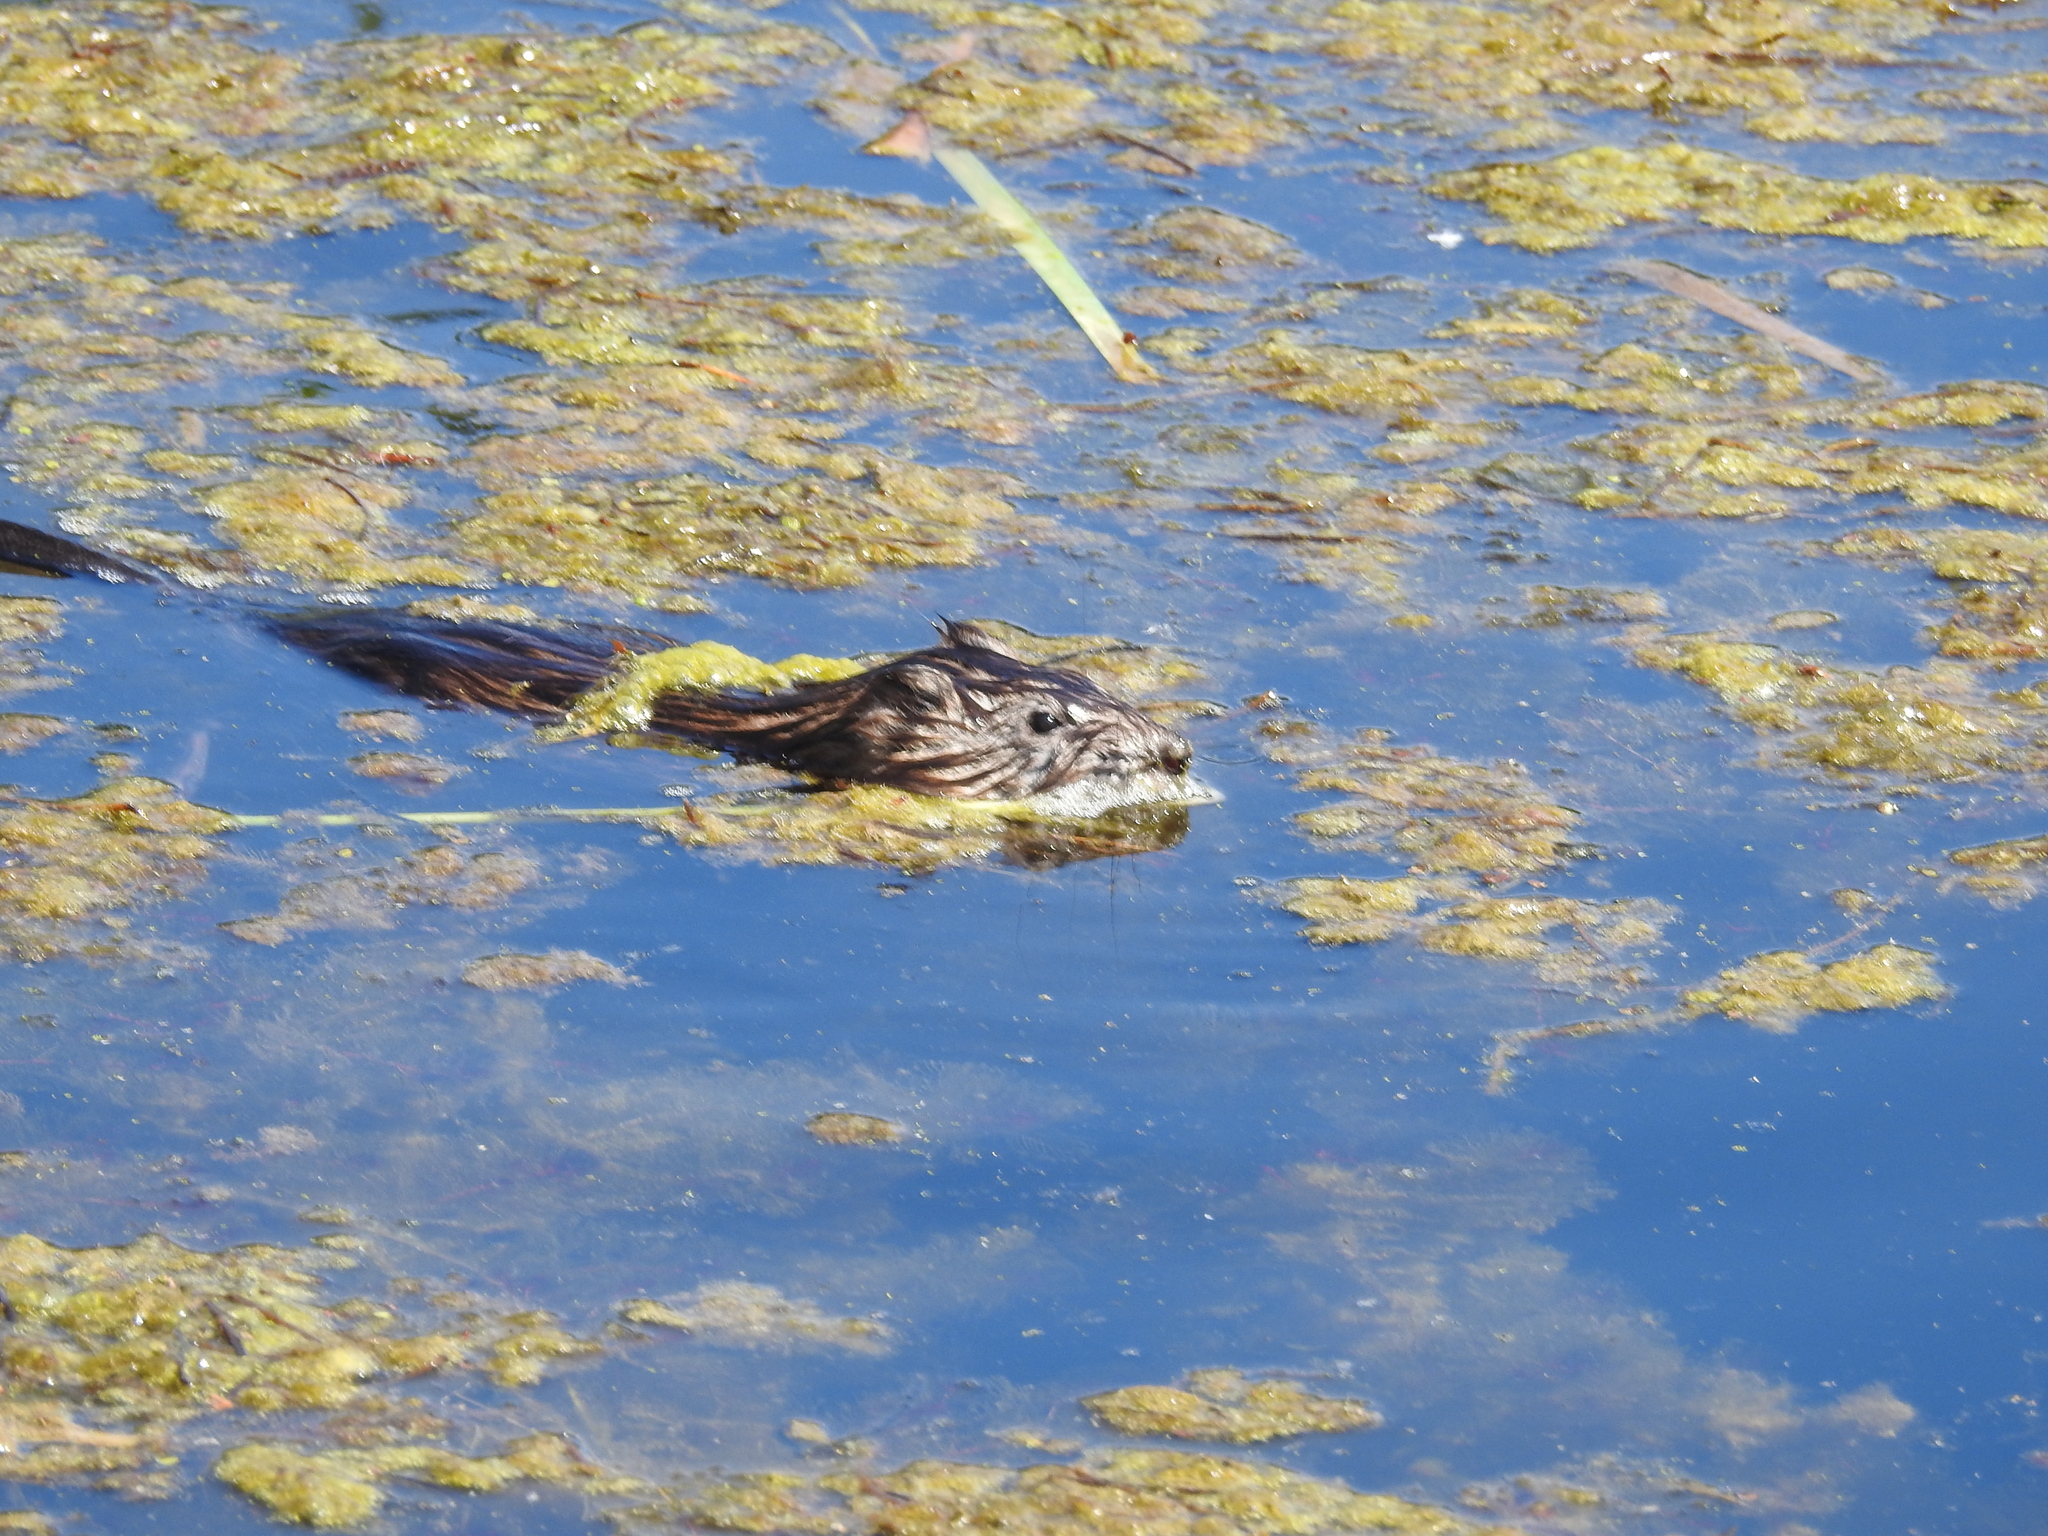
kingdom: Animalia
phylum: Chordata
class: Mammalia
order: Rodentia
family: Cricetidae
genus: Ondatra
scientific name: Ondatra zibethicus
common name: Muskrat
